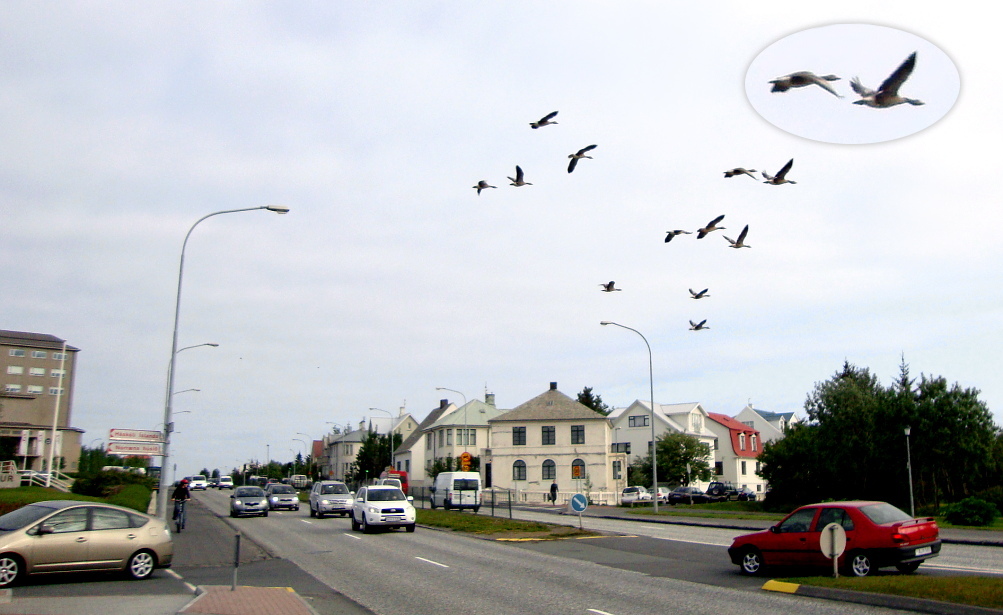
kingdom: Animalia
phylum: Chordata
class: Aves
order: Anseriformes
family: Anatidae
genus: Anser
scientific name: Anser anser
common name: Greylag goose
